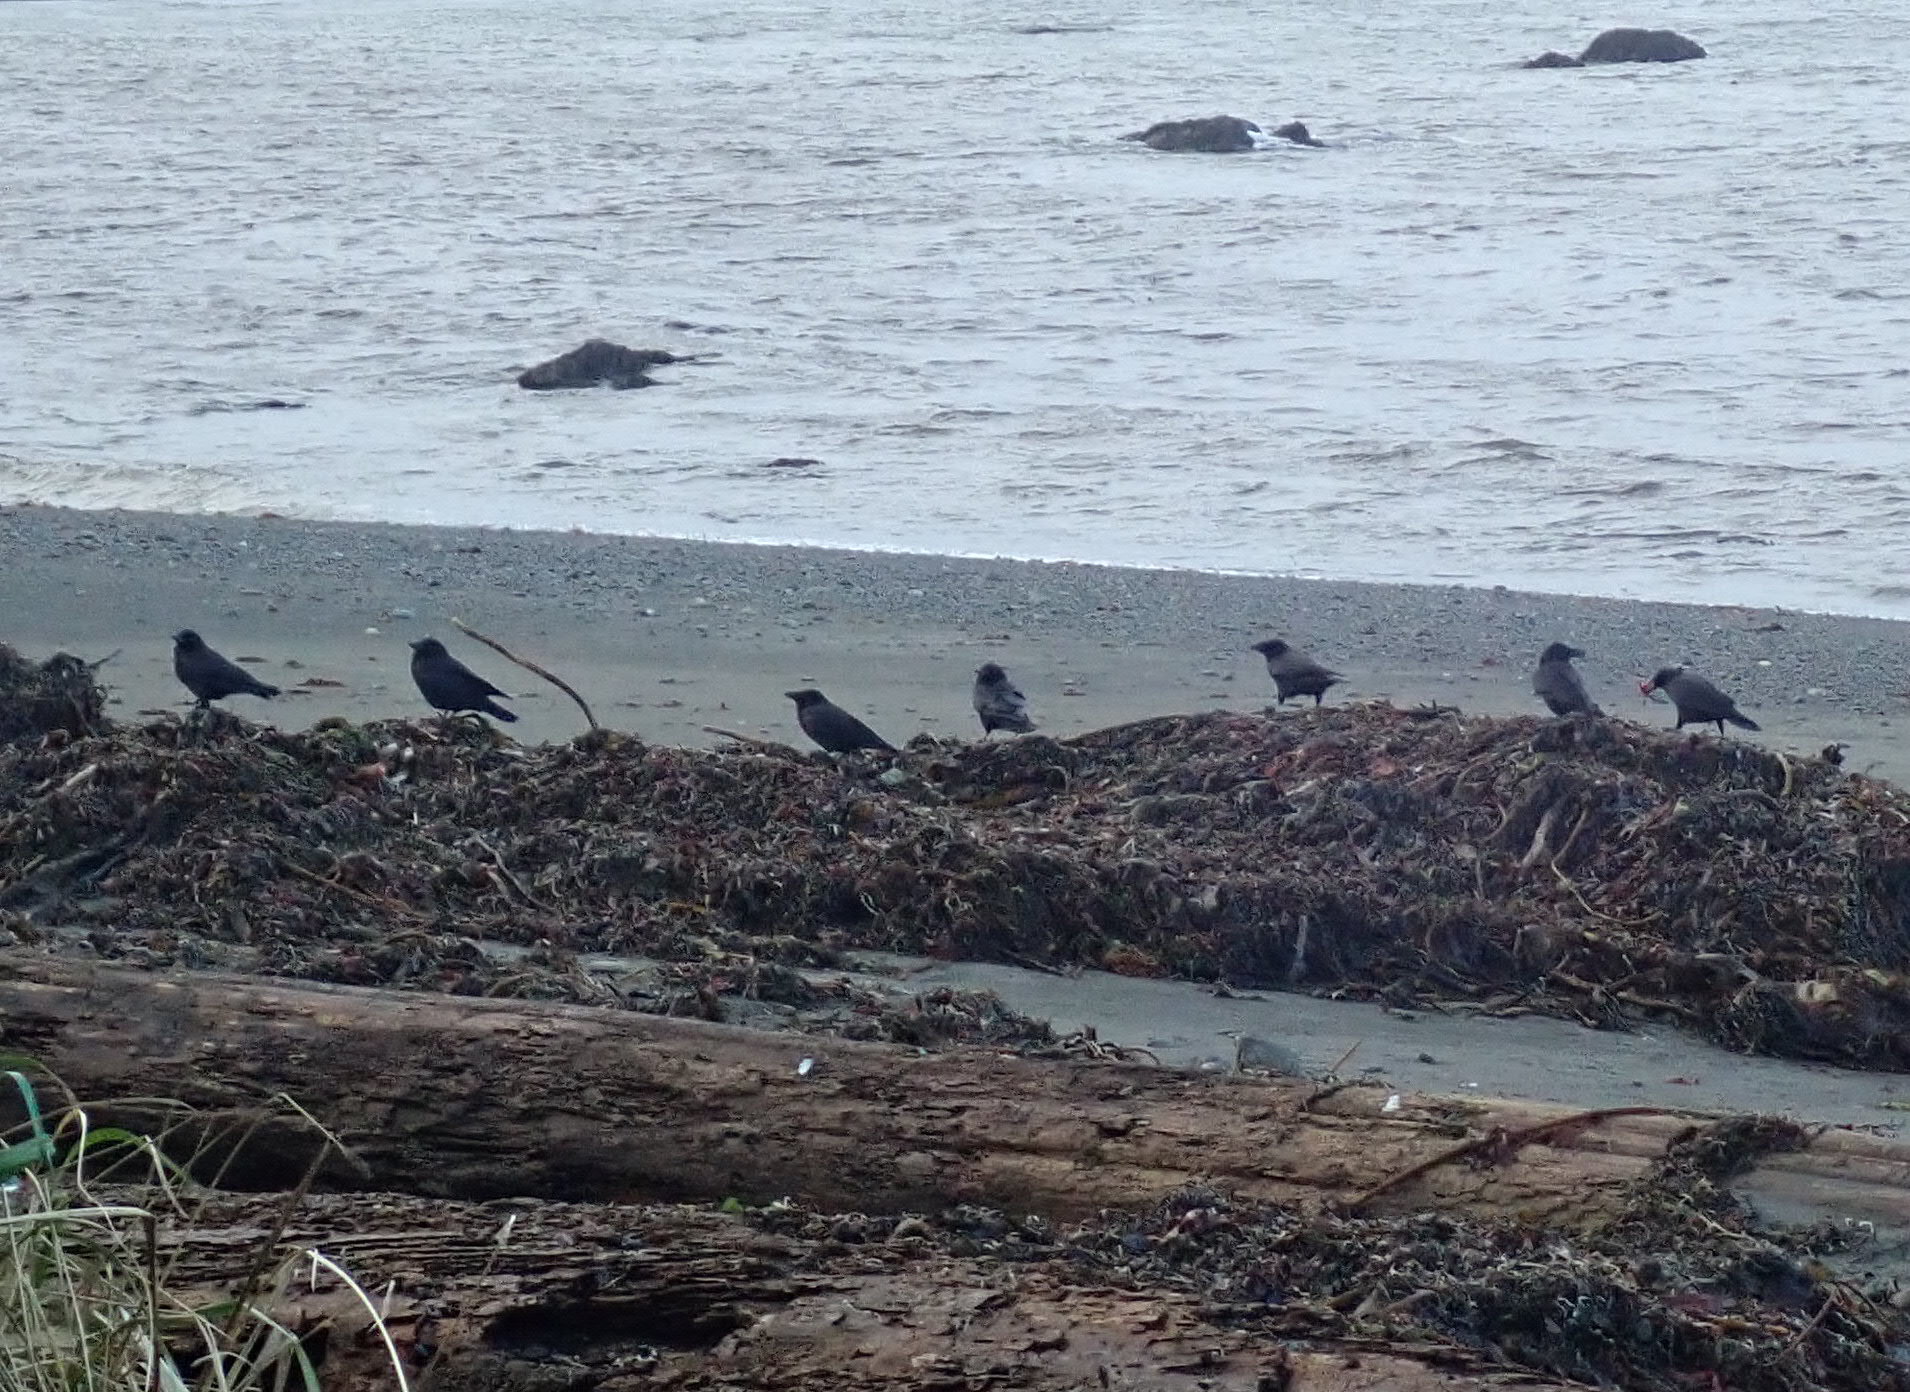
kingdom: Animalia
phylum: Chordata
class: Aves
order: Passeriformes
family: Corvidae
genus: Corvus
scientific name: Corvus brachyrhynchos
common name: American crow
